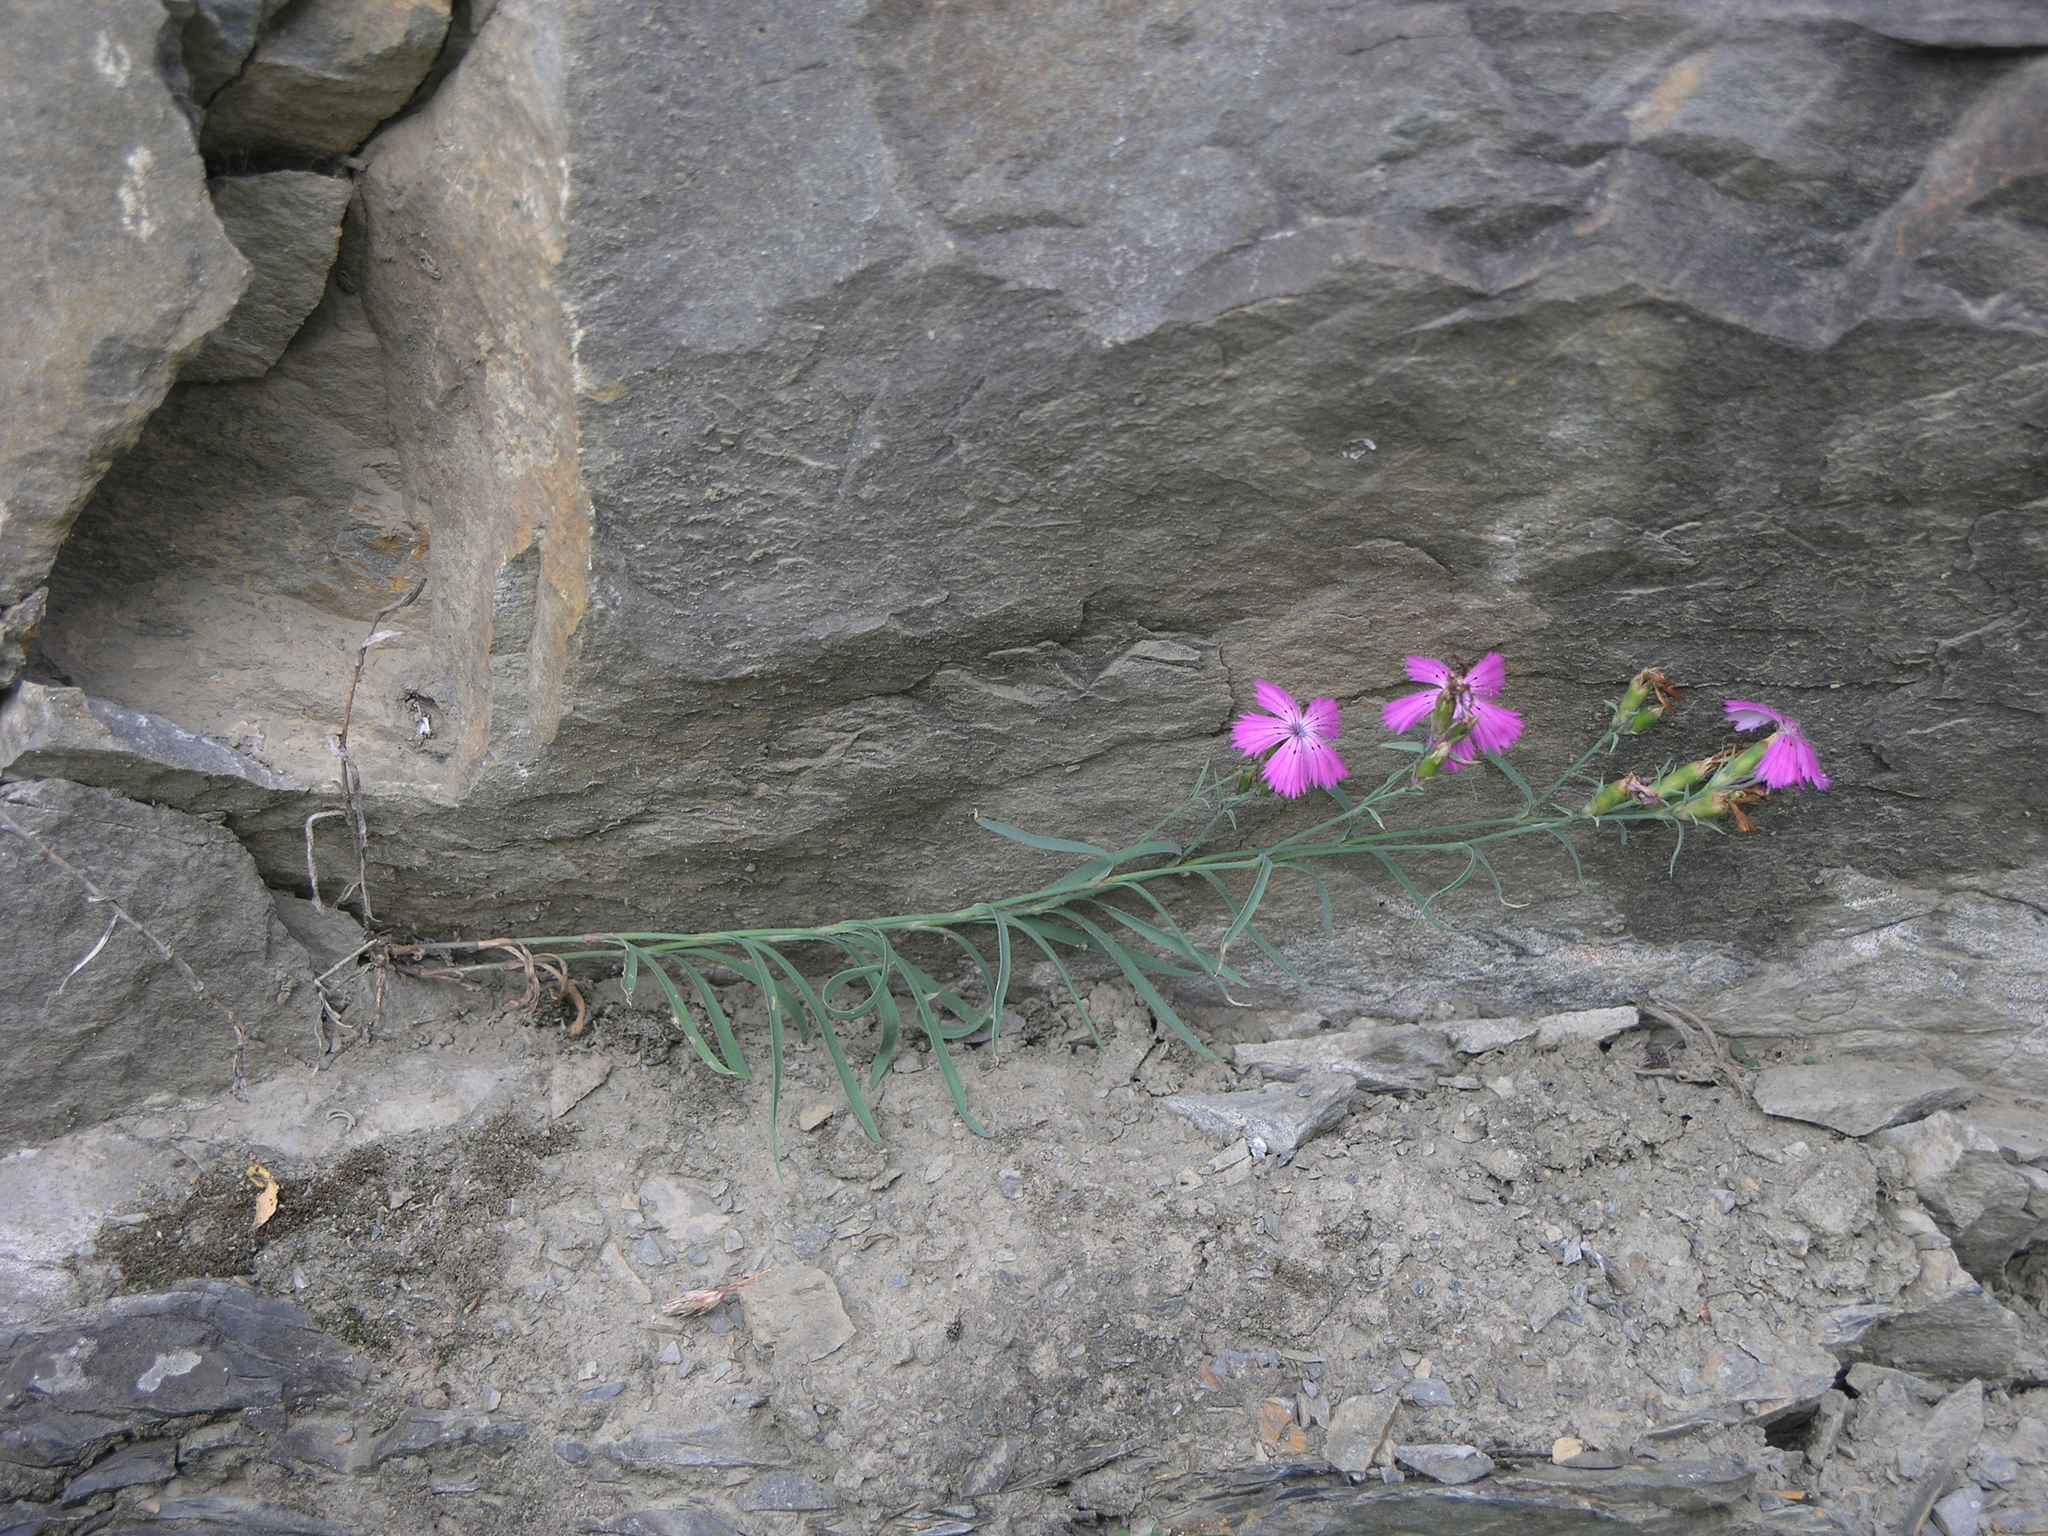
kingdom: Plantae
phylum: Tracheophyta
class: Magnoliopsida
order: Caryophyllales
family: Caryophyllaceae
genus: Dianthus
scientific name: Dianthus chinensis
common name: Rainbow pink
